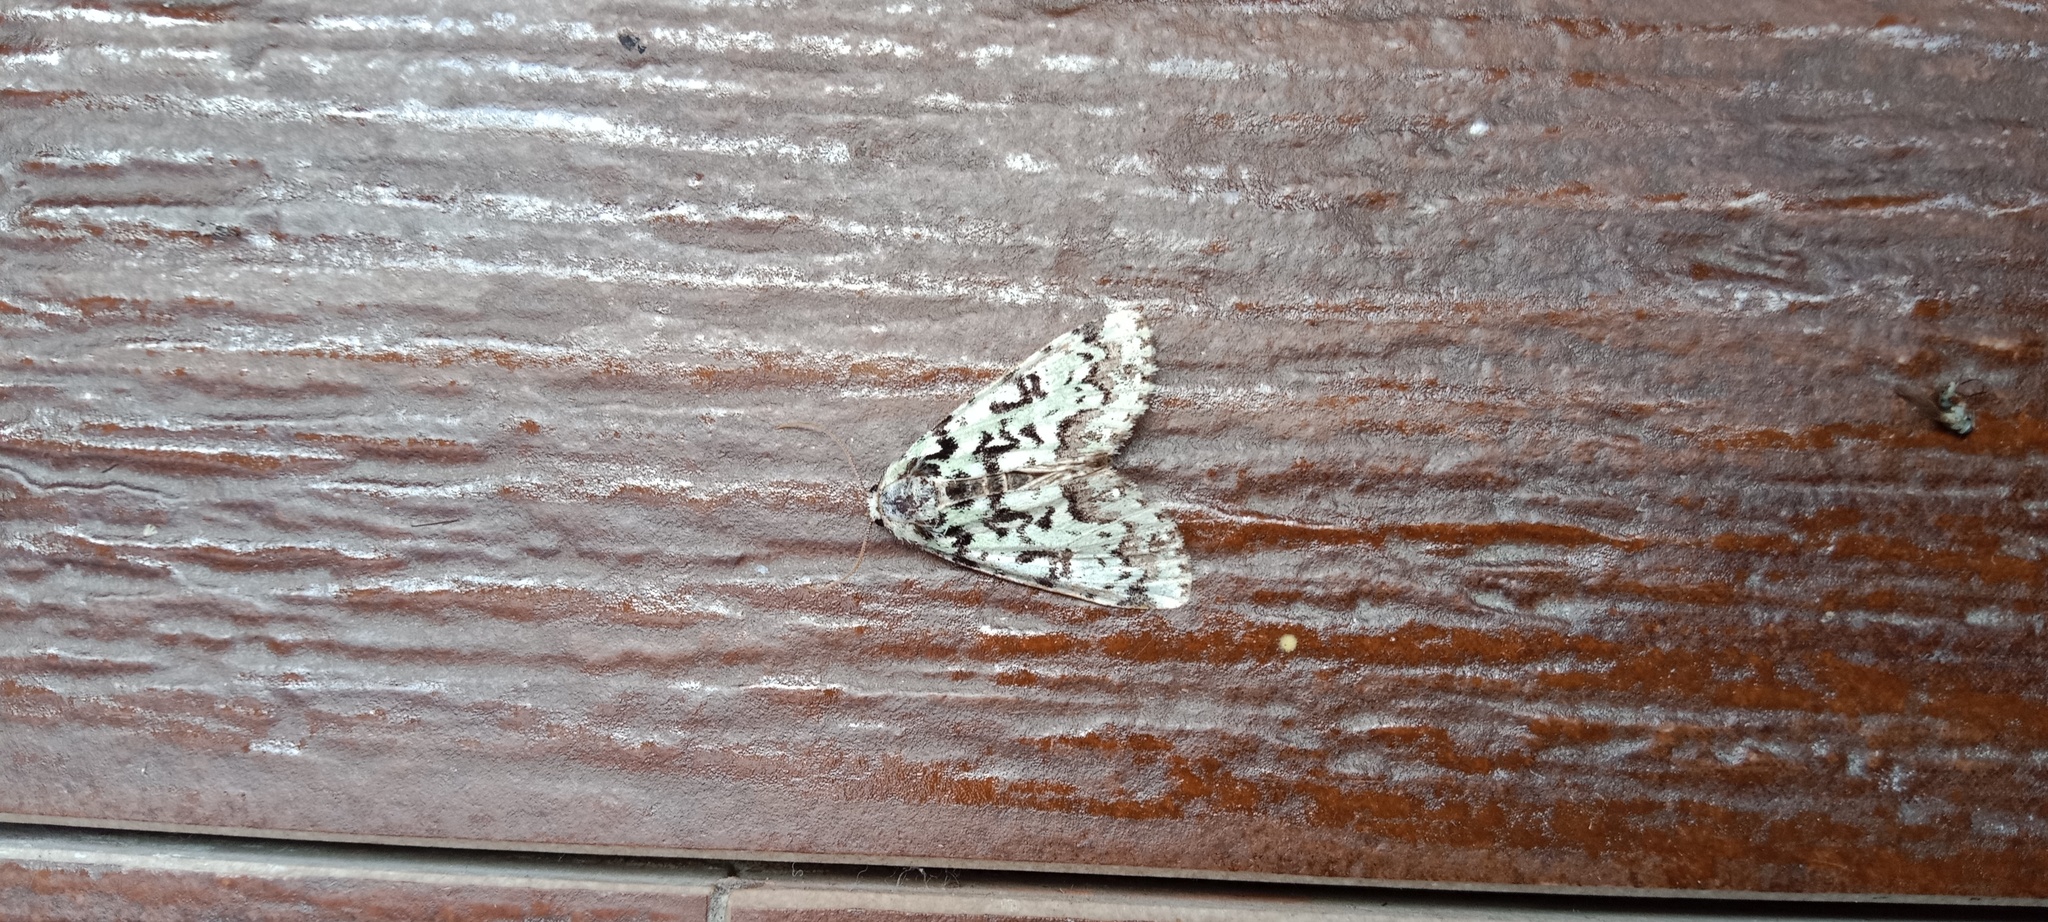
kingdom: Animalia
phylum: Arthropoda
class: Insecta
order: Lepidoptera
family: Noctuidae
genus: Moma
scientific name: Moma alpium
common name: Scarce merveille du jour
